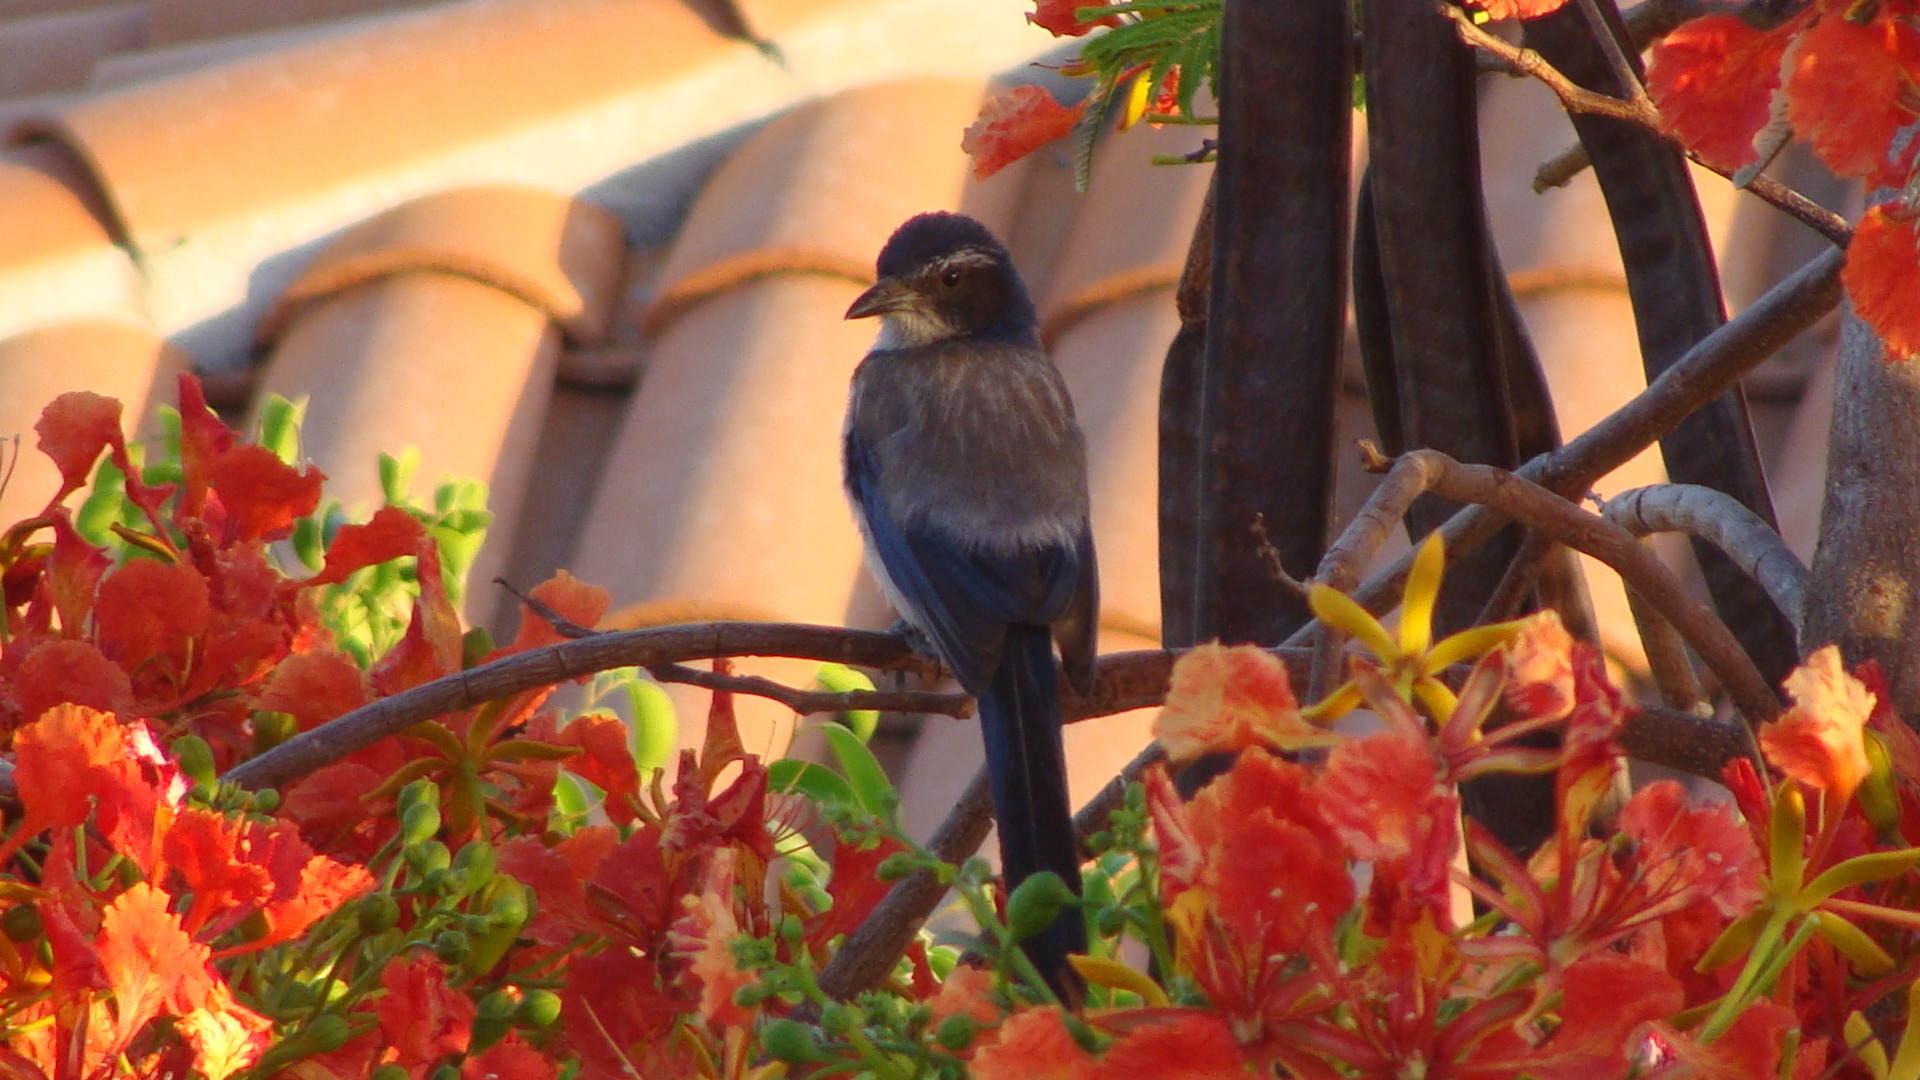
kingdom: Animalia
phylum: Chordata
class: Aves
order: Passeriformes
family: Corvidae
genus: Aphelocoma
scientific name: Aphelocoma californica
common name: California scrub-jay
